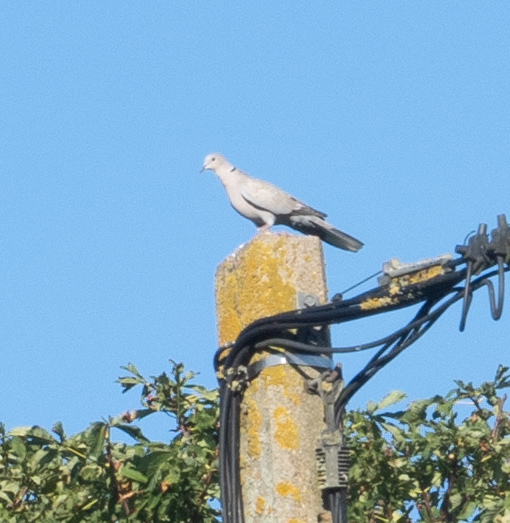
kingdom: Animalia
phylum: Chordata
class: Aves
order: Columbiformes
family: Columbidae
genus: Streptopelia
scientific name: Streptopelia decaocto
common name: Eurasian collared dove
